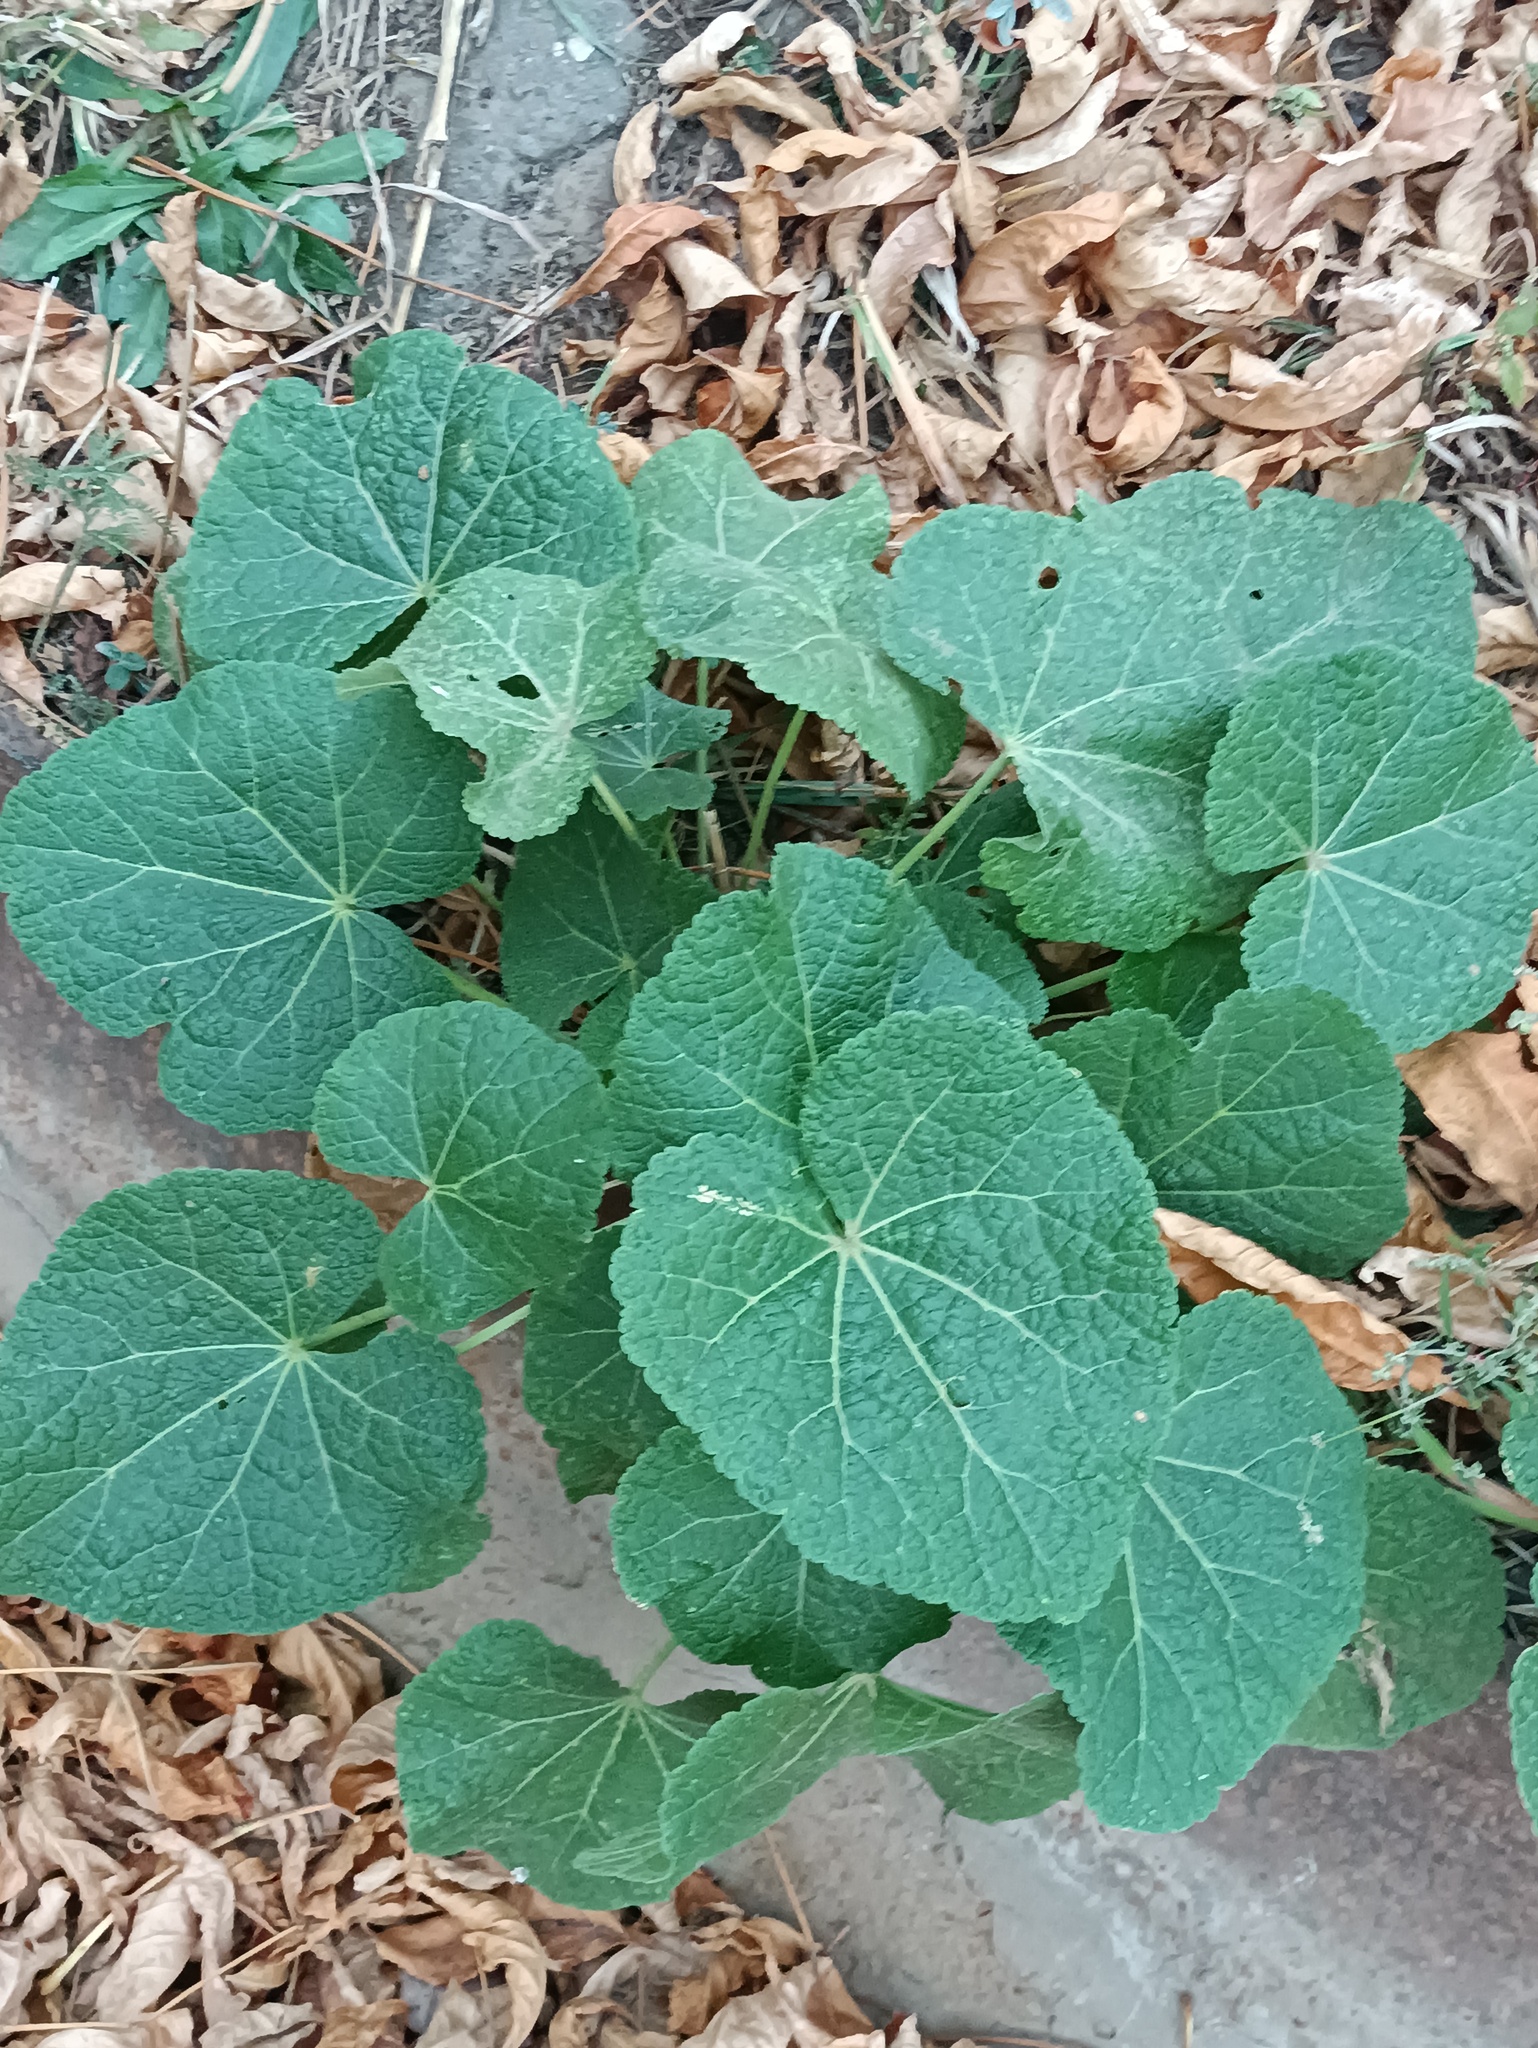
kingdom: Plantae
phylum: Tracheophyta
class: Magnoliopsida
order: Malvales
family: Malvaceae
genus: Alcea
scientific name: Alcea rosea
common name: Hollyhock
